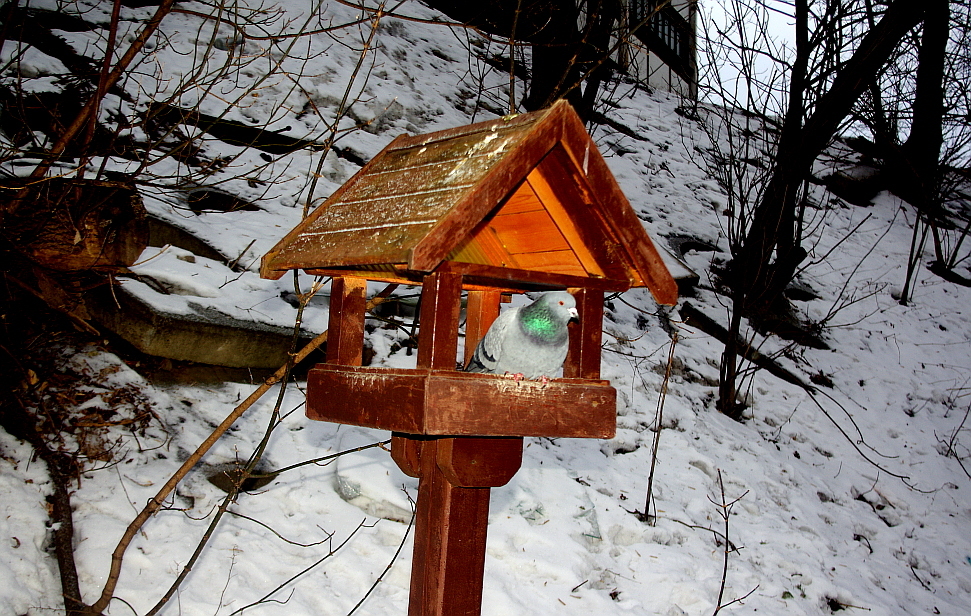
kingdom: Animalia
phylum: Chordata
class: Aves
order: Columbiformes
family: Columbidae
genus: Columba
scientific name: Columba livia
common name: Rock pigeon
